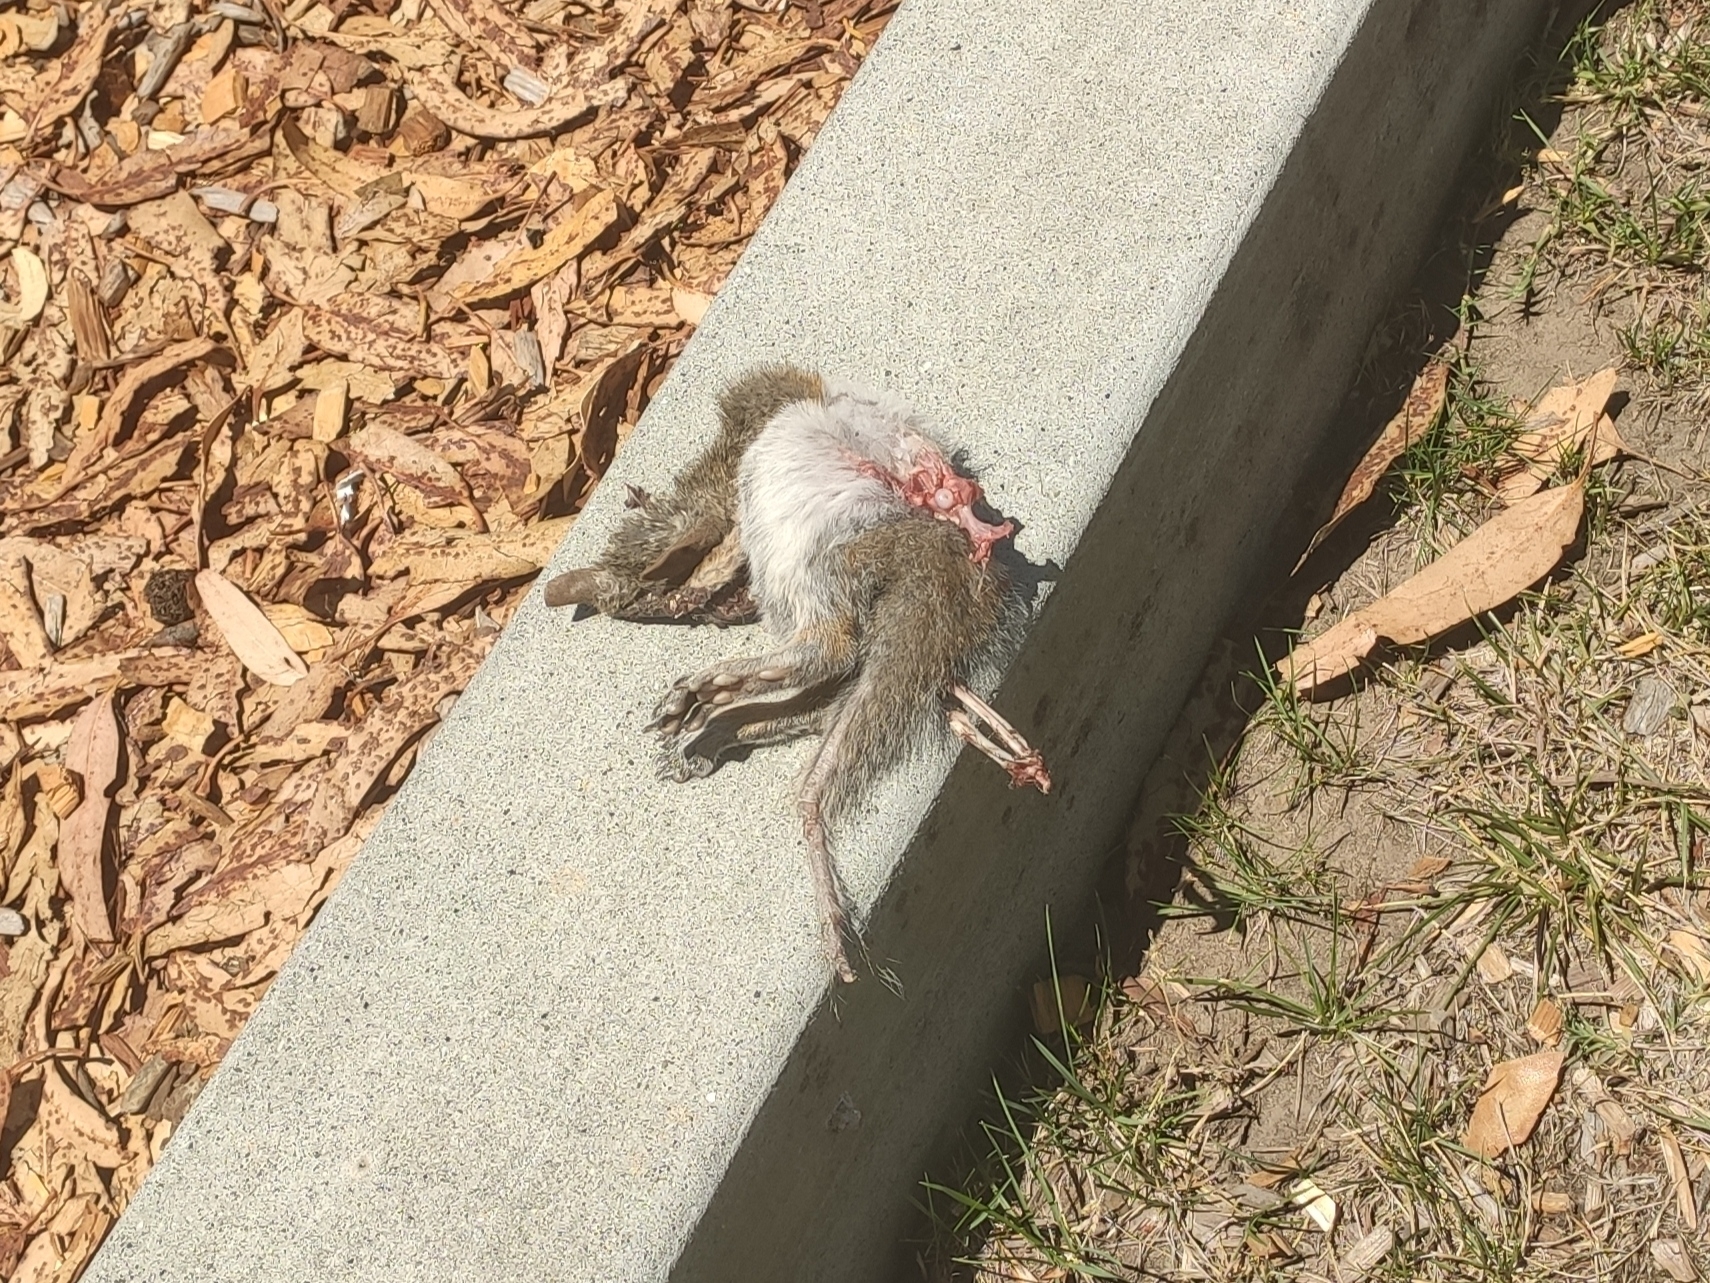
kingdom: Animalia
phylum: Chordata
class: Mammalia
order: Rodentia
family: Sciuridae
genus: Sciurus
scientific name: Sciurus carolinensis
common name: Eastern gray squirrel
